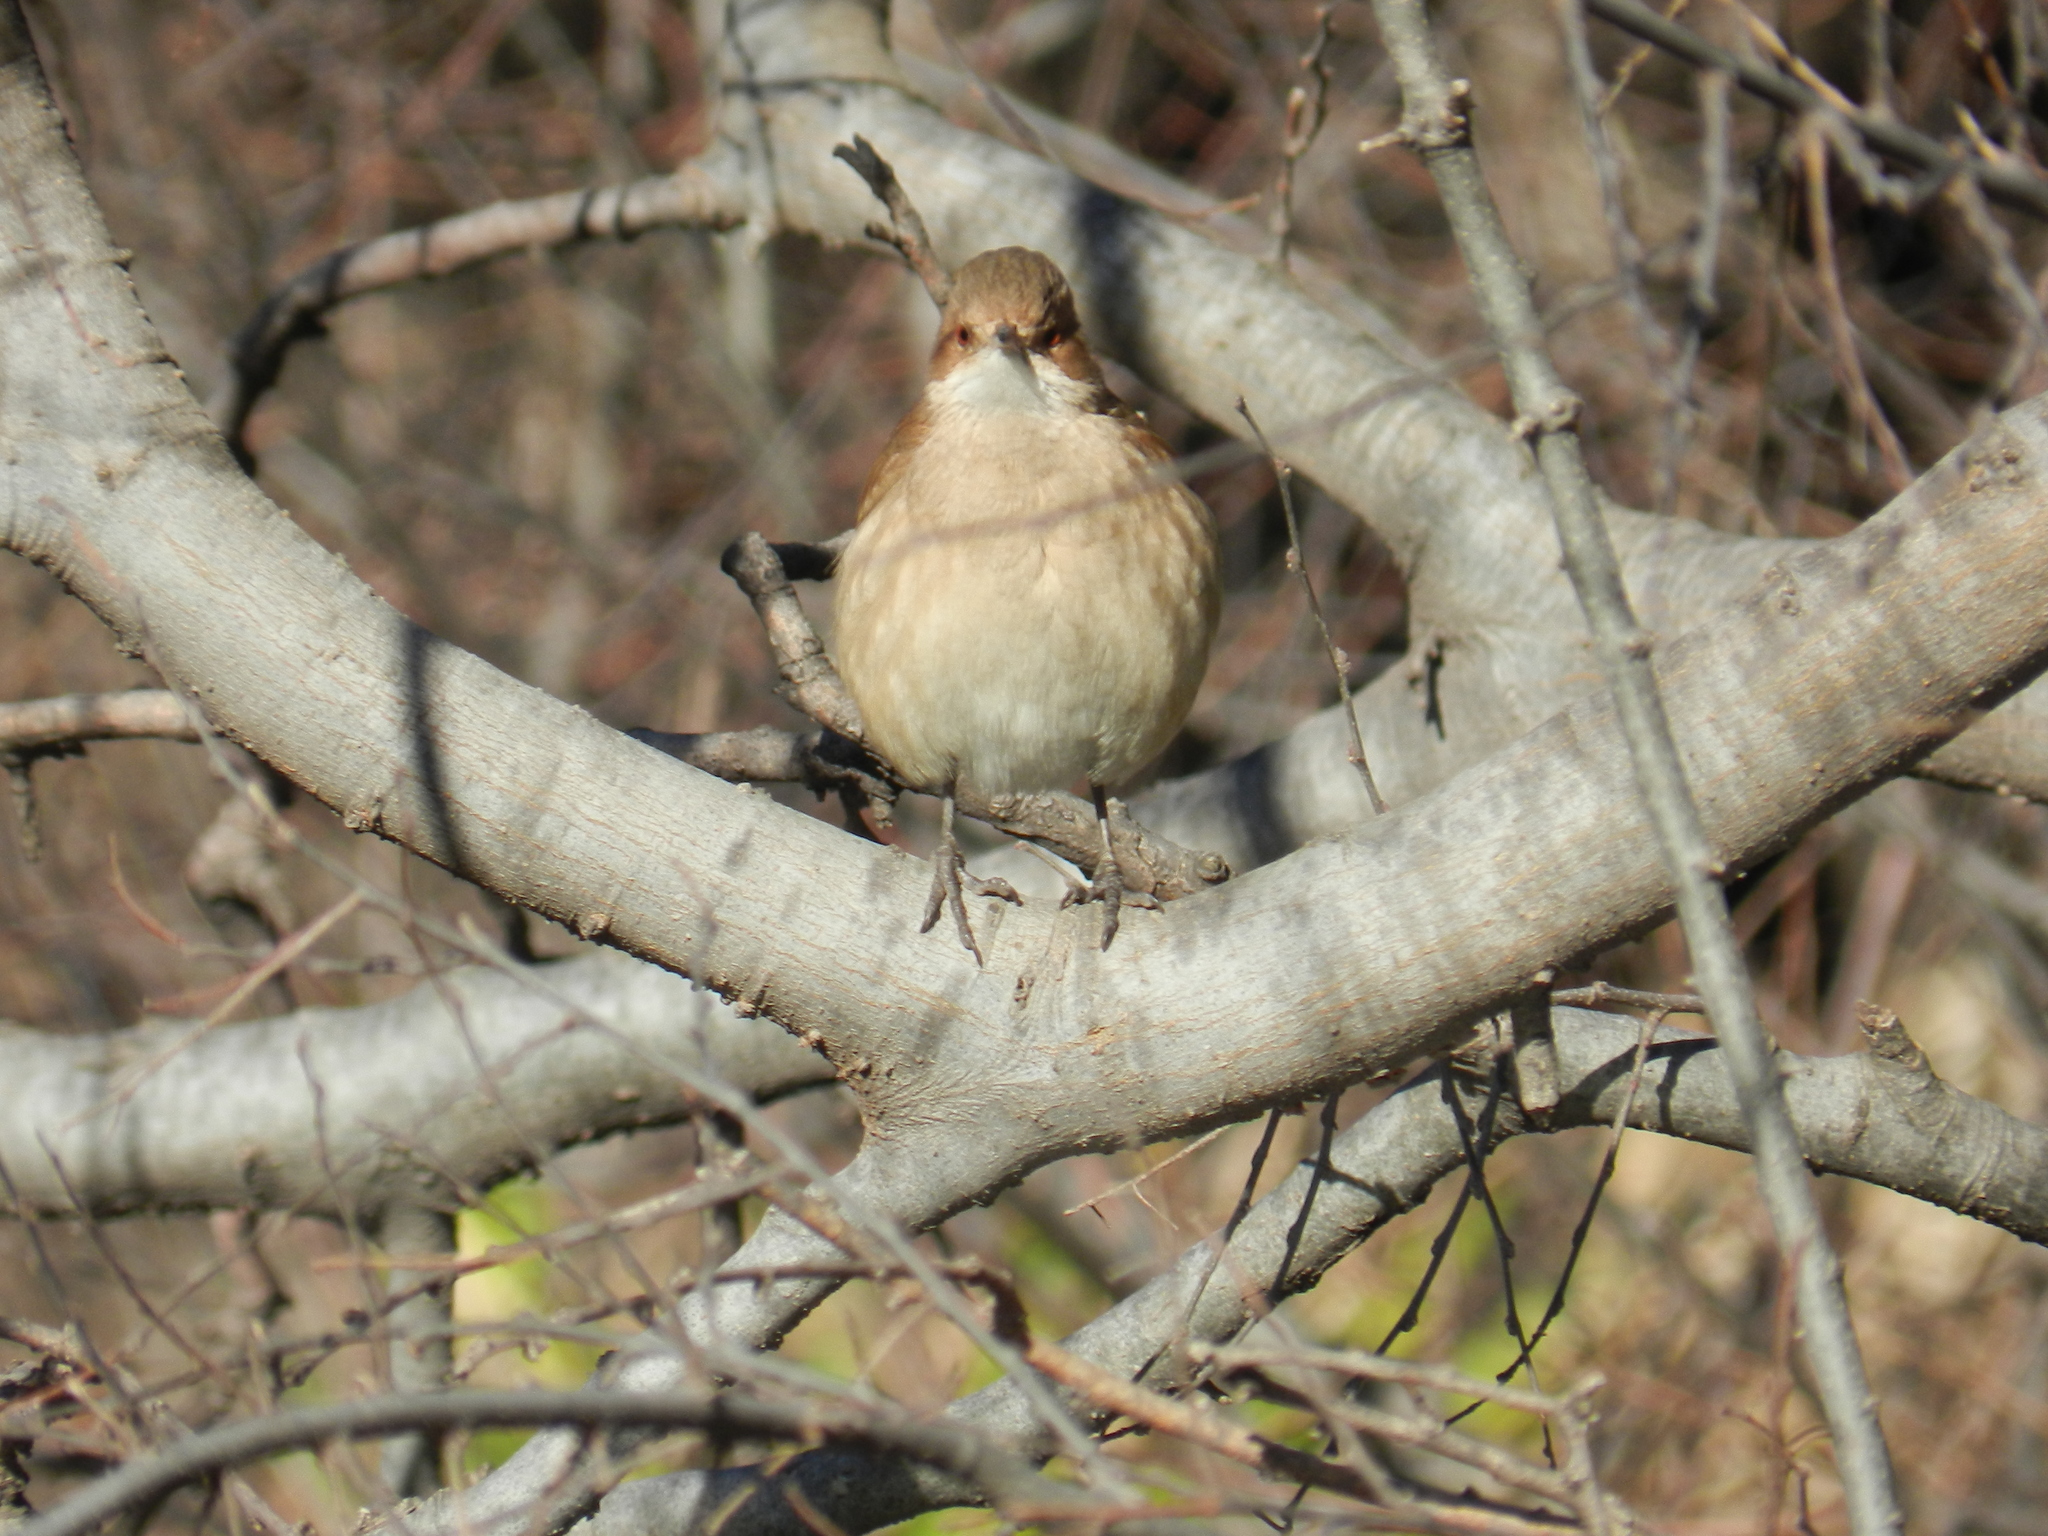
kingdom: Animalia
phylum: Chordata
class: Aves
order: Passeriformes
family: Furnariidae
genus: Furnarius
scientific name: Furnarius rufus
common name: Rufous hornero
